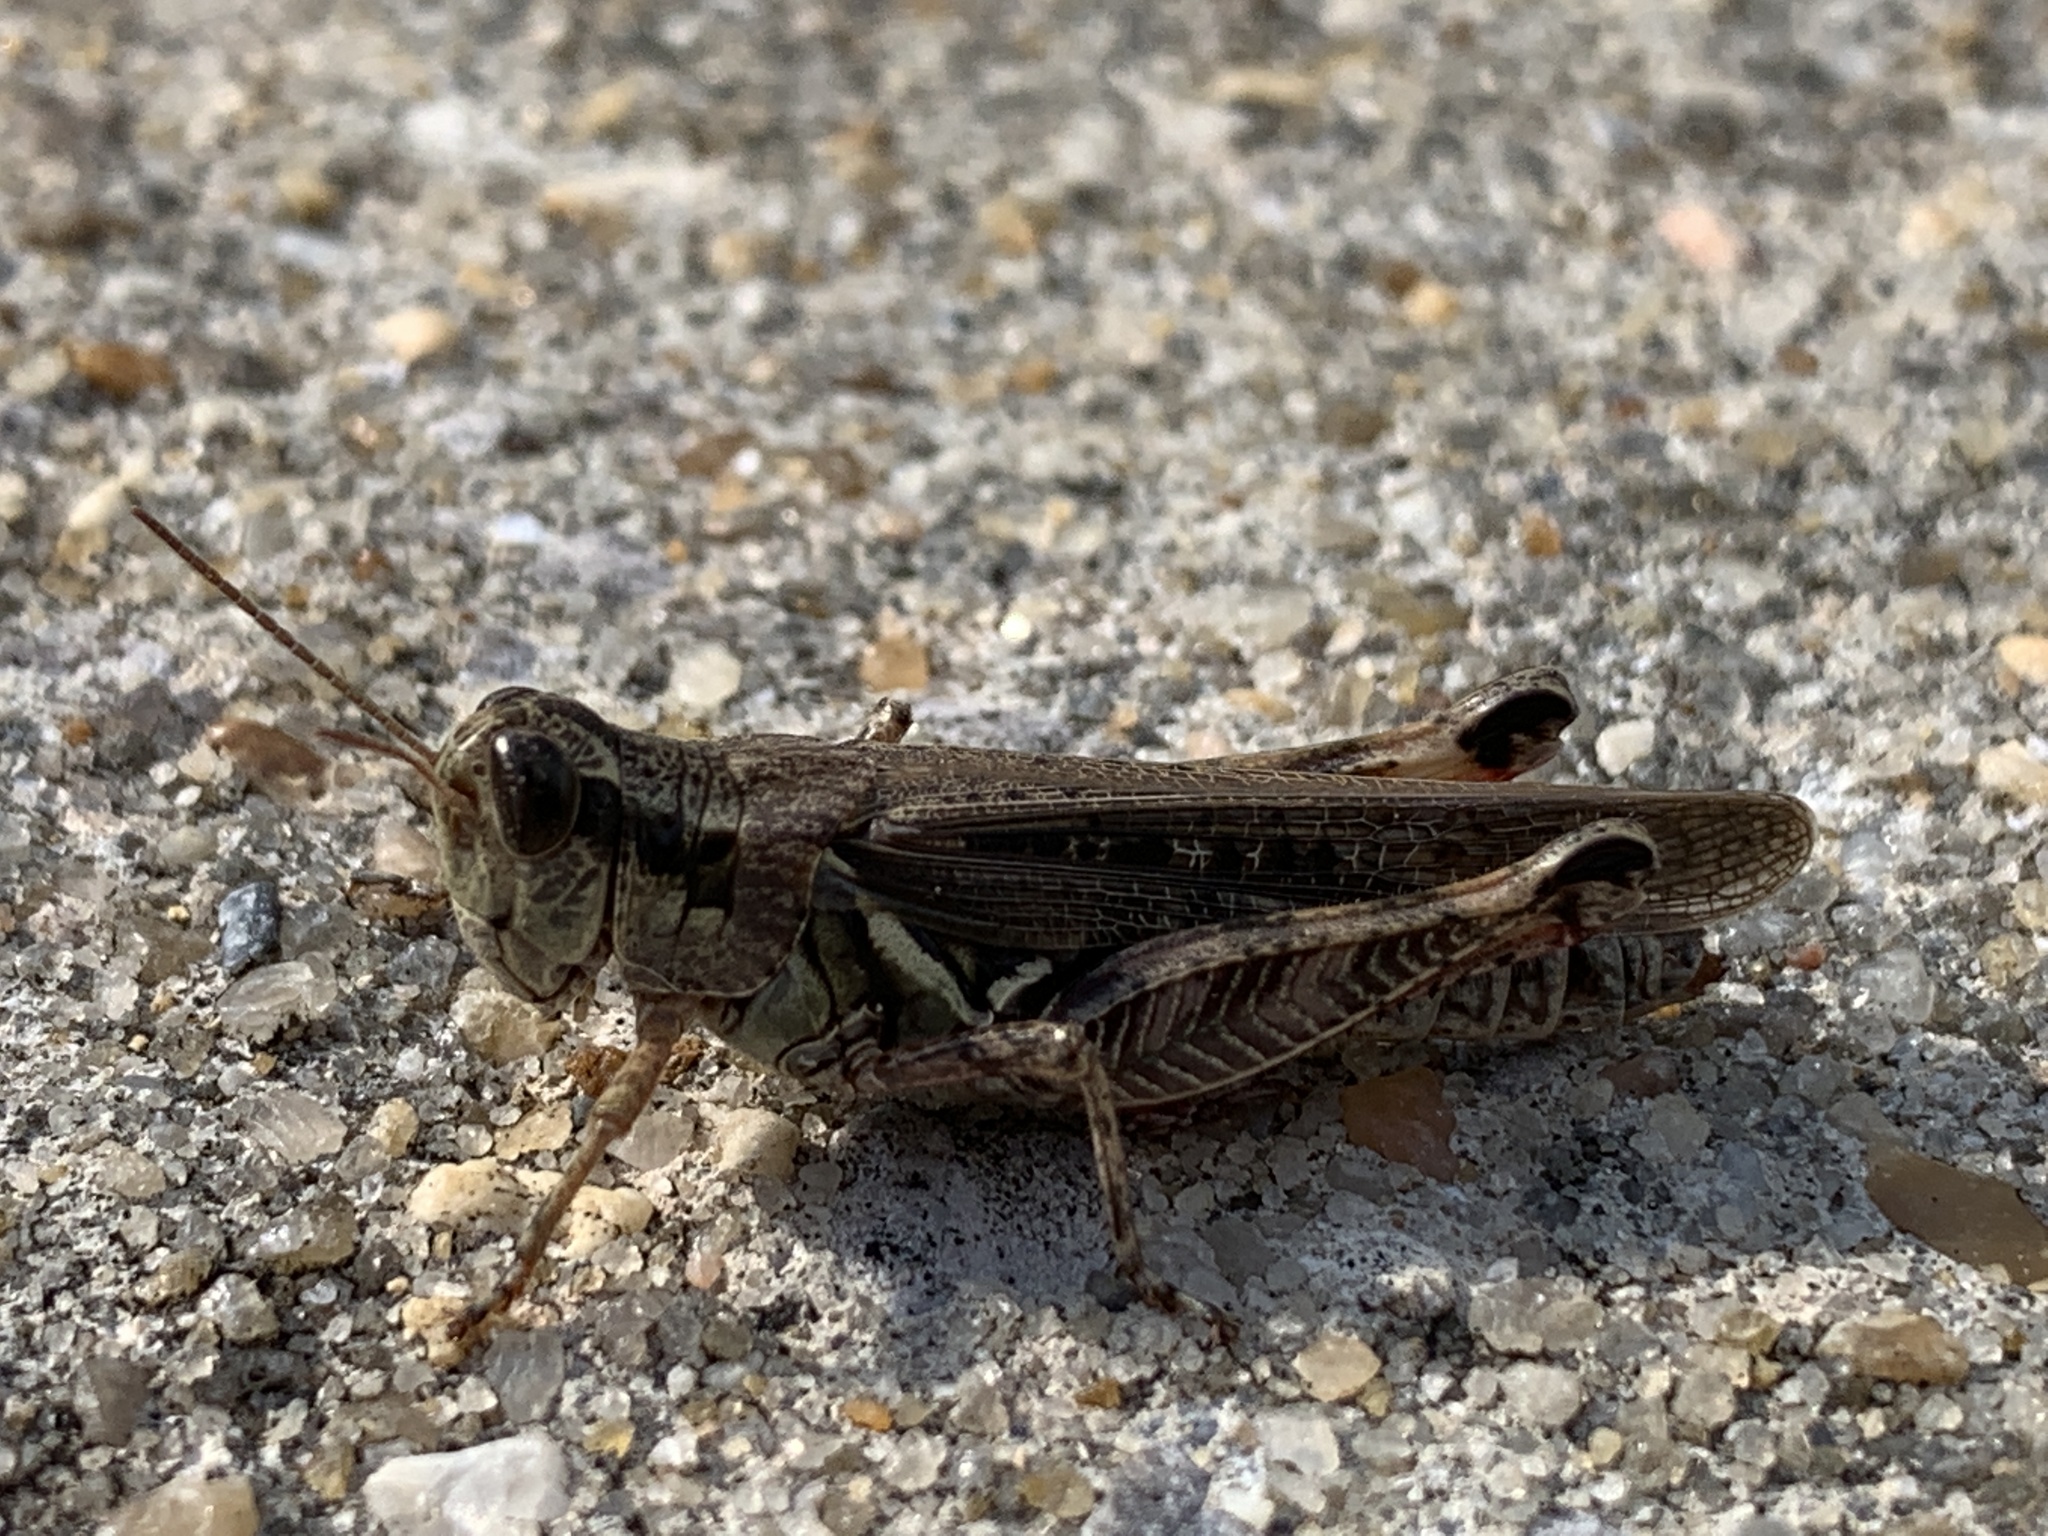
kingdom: Animalia
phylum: Arthropoda
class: Insecta
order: Orthoptera
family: Acrididae
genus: Melanoplus
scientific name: Melanoplus sanguinipes
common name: Migratory grasshopper
